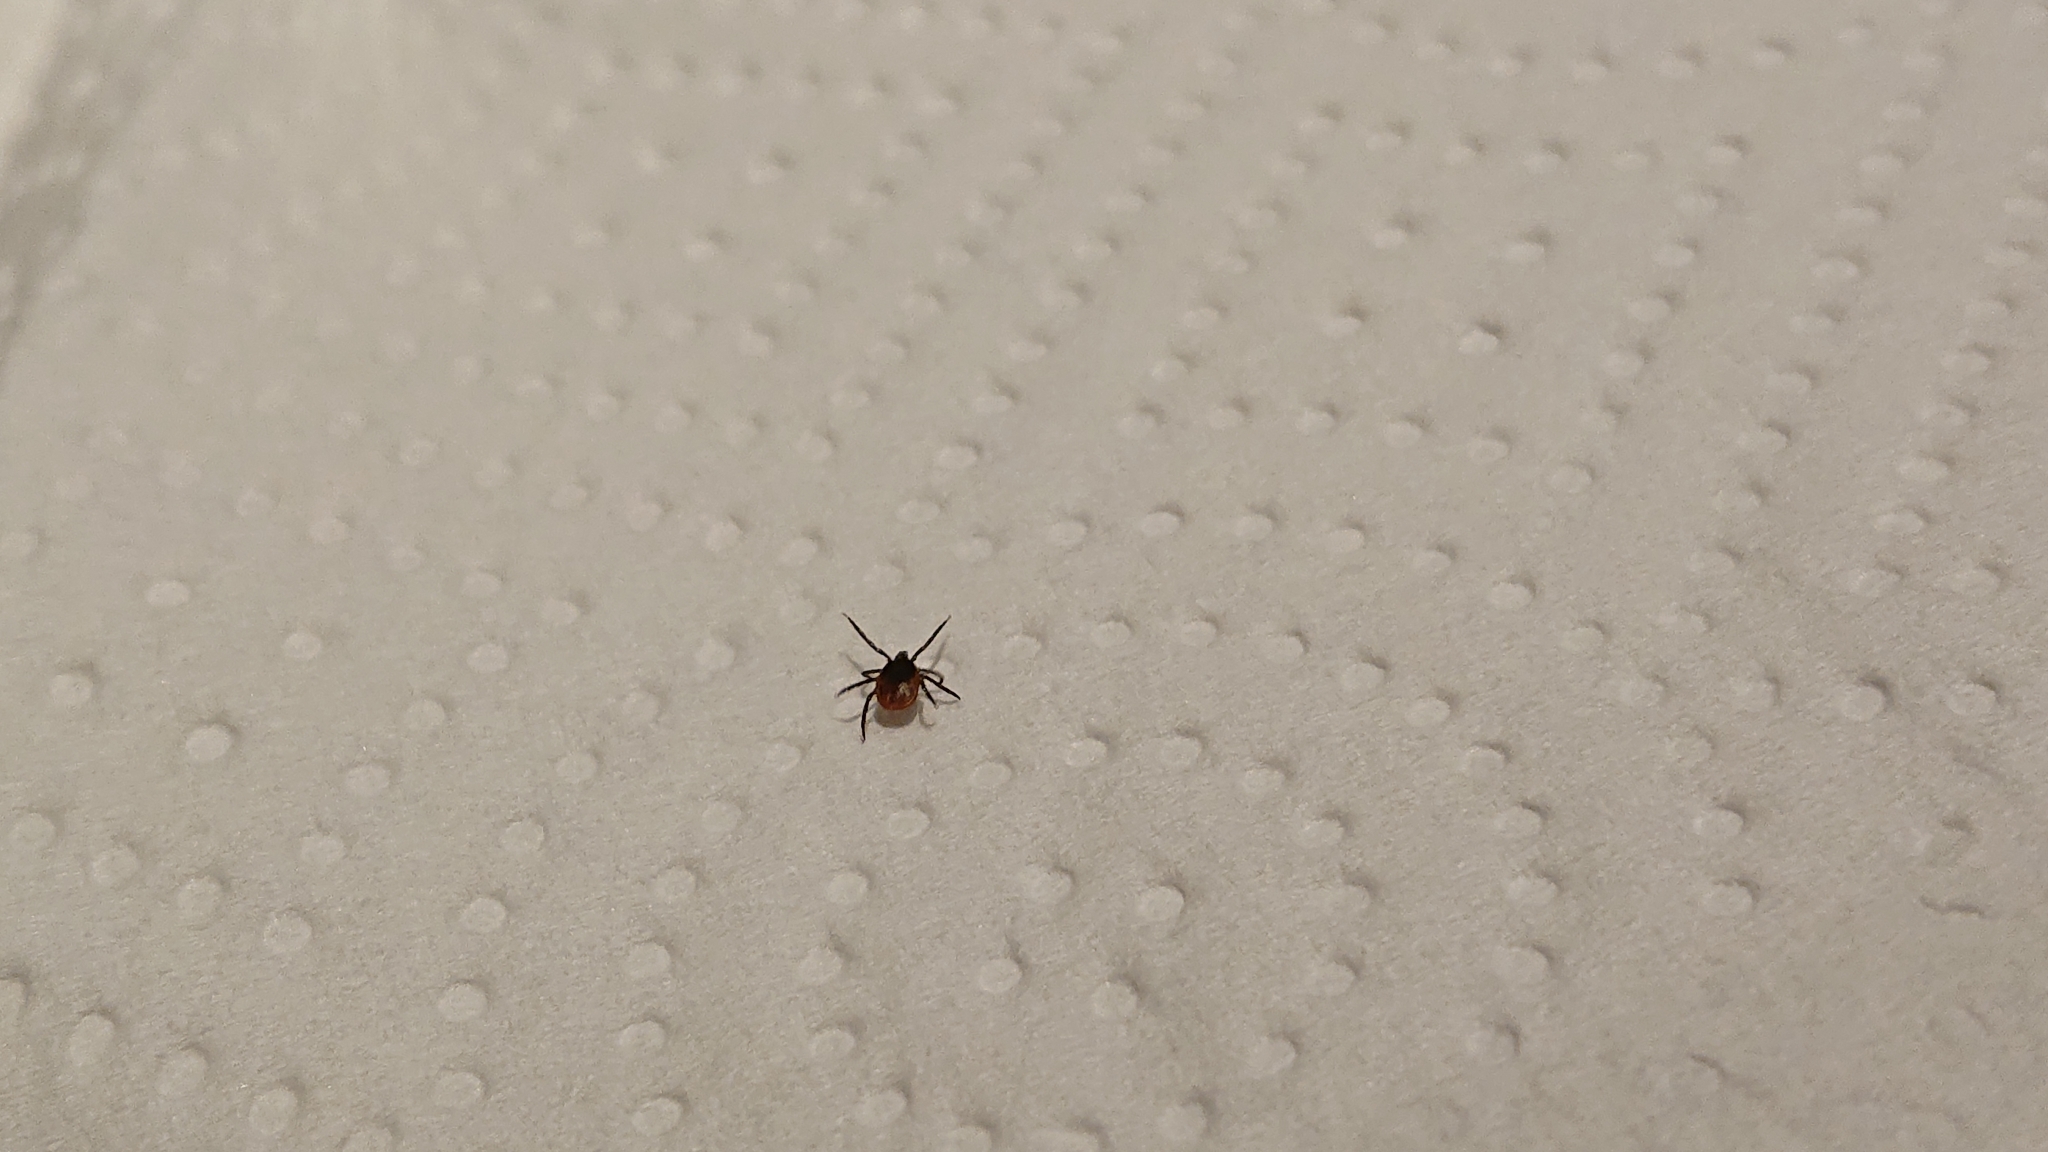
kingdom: Animalia
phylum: Arthropoda
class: Arachnida
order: Ixodida
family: Ixodidae
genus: Ixodes
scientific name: Ixodes ricinus
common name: Castor bean tick
